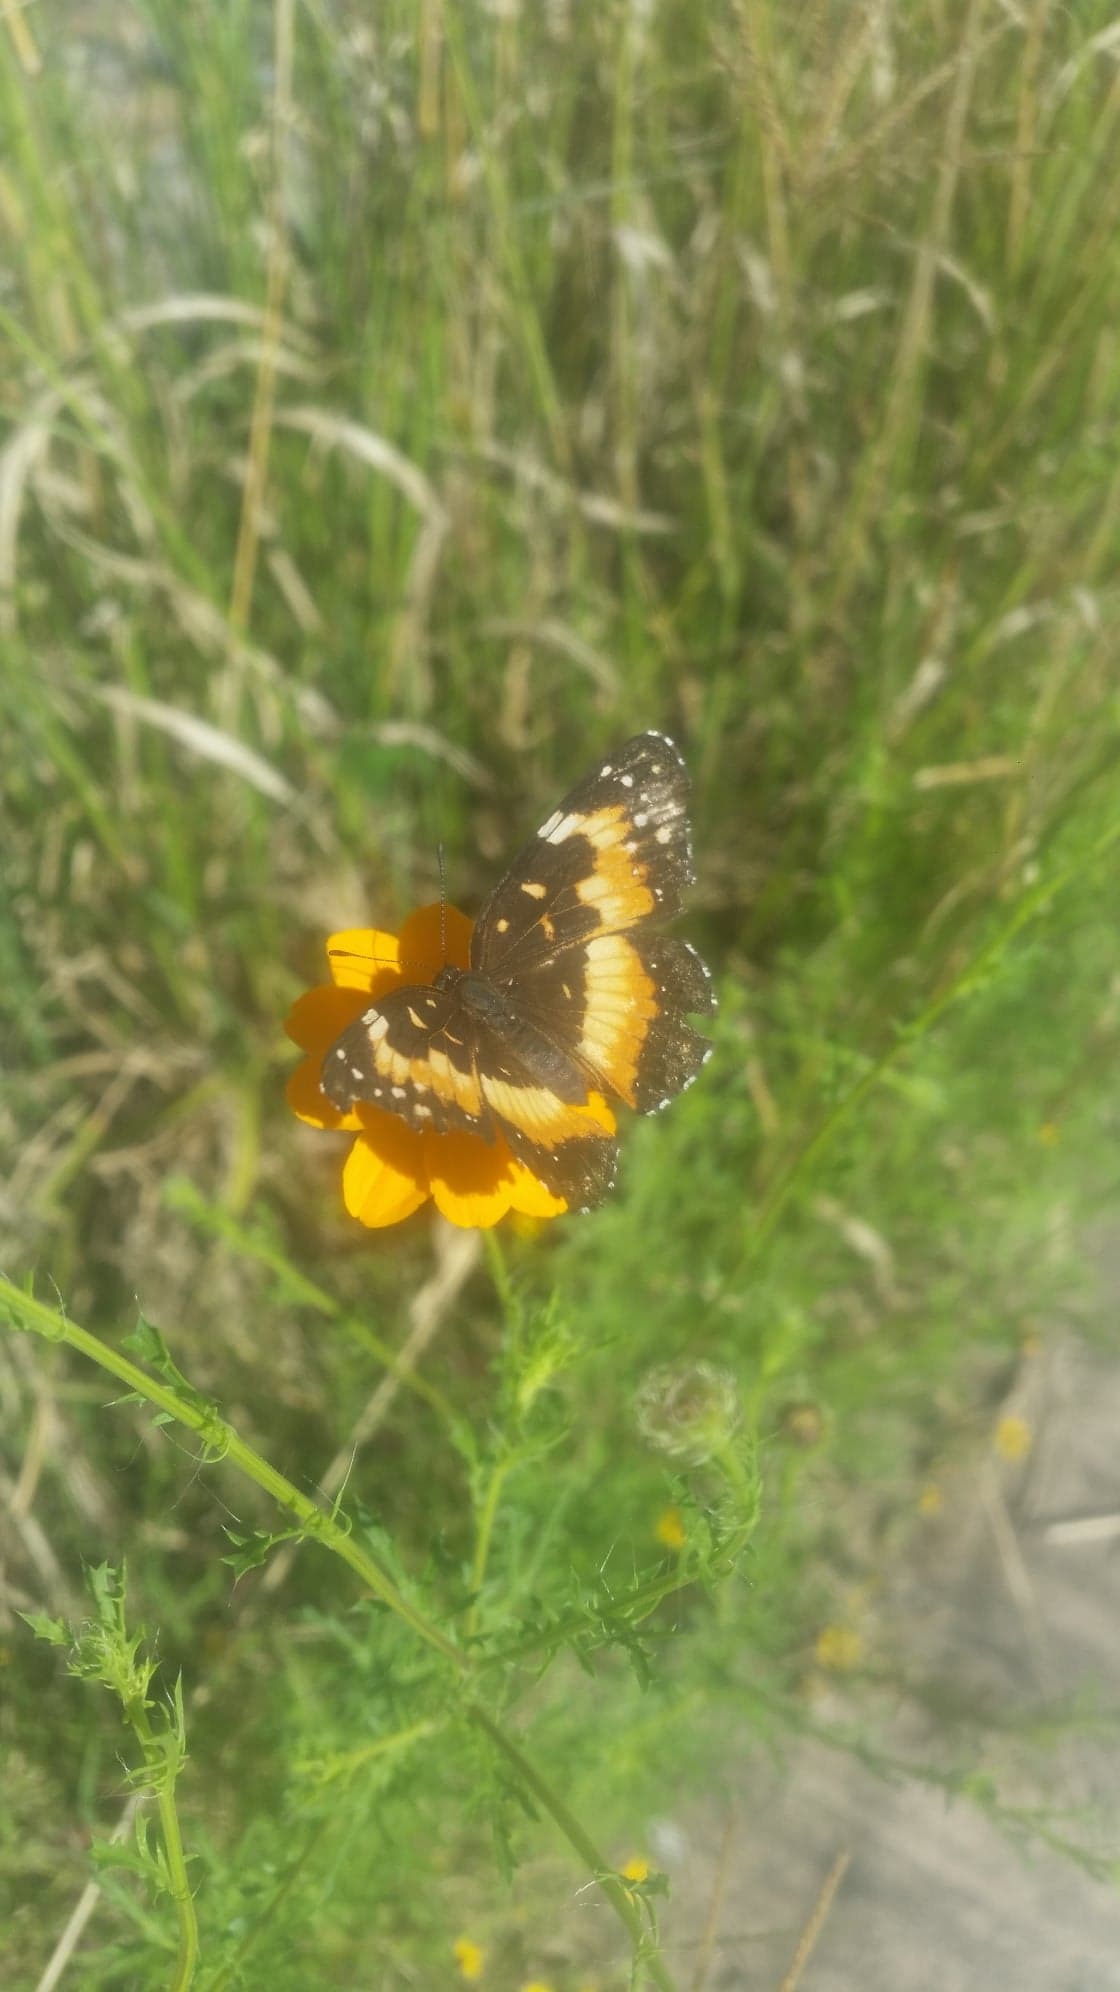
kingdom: Animalia
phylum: Arthropoda
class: Insecta
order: Lepidoptera
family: Nymphalidae
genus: Chlosyne
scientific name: Chlosyne lacinia
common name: Bordered patch
